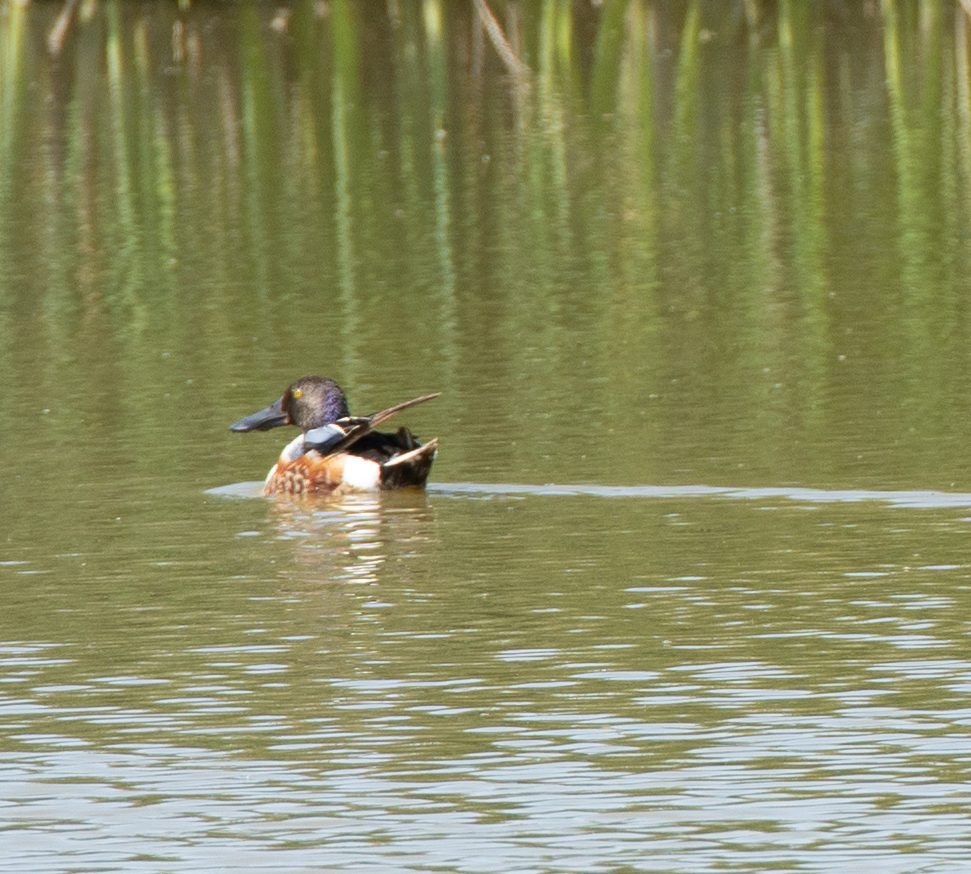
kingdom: Animalia
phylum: Chordata
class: Aves
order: Anseriformes
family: Anatidae
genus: Spatula
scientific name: Spatula clypeata
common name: Northern shoveler
